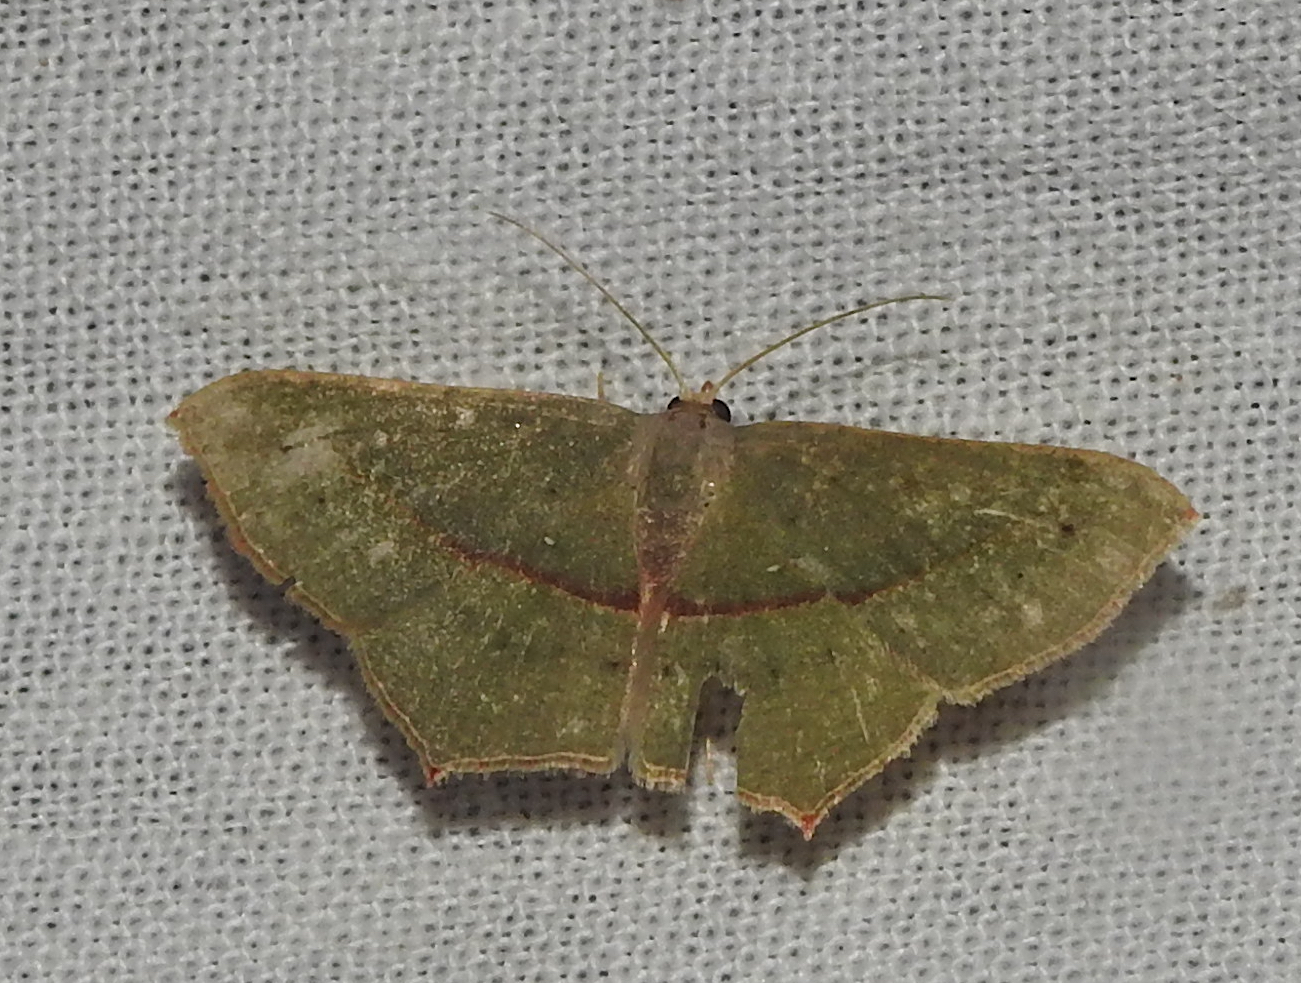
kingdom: Animalia
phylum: Arthropoda
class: Insecta
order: Lepidoptera
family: Geometridae
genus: Traminda
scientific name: Traminda mundissima
